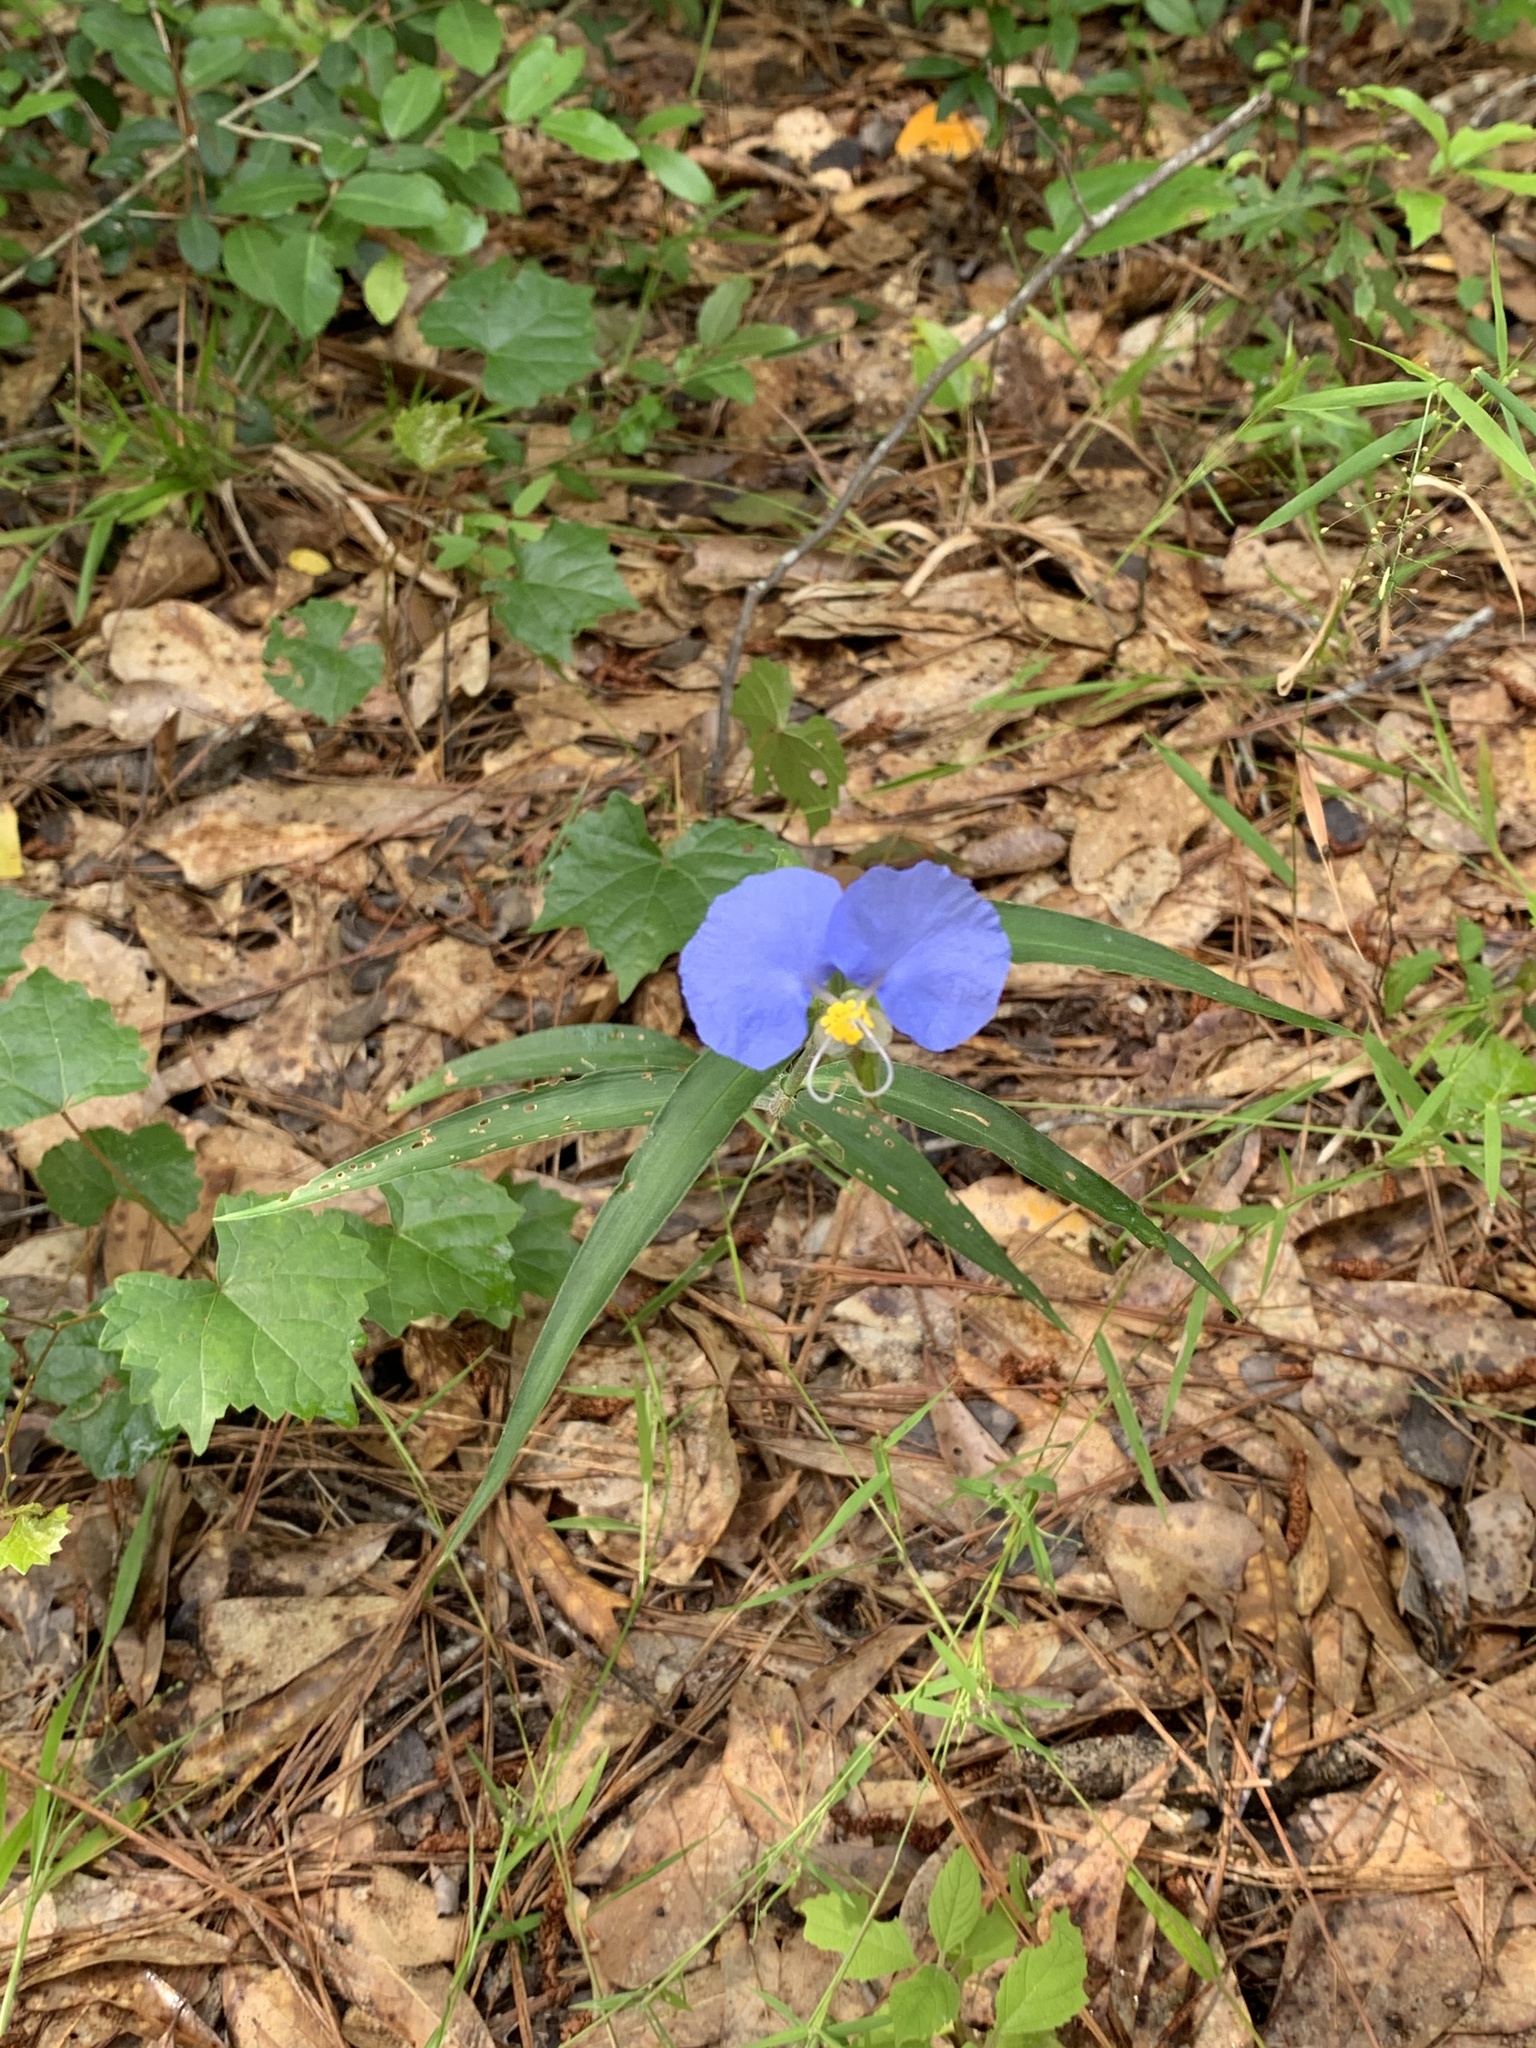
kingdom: Plantae
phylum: Tracheophyta
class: Liliopsida
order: Commelinales
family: Commelinaceae
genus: Commelina
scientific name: Commelina erecta
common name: Blousel blommetjie
